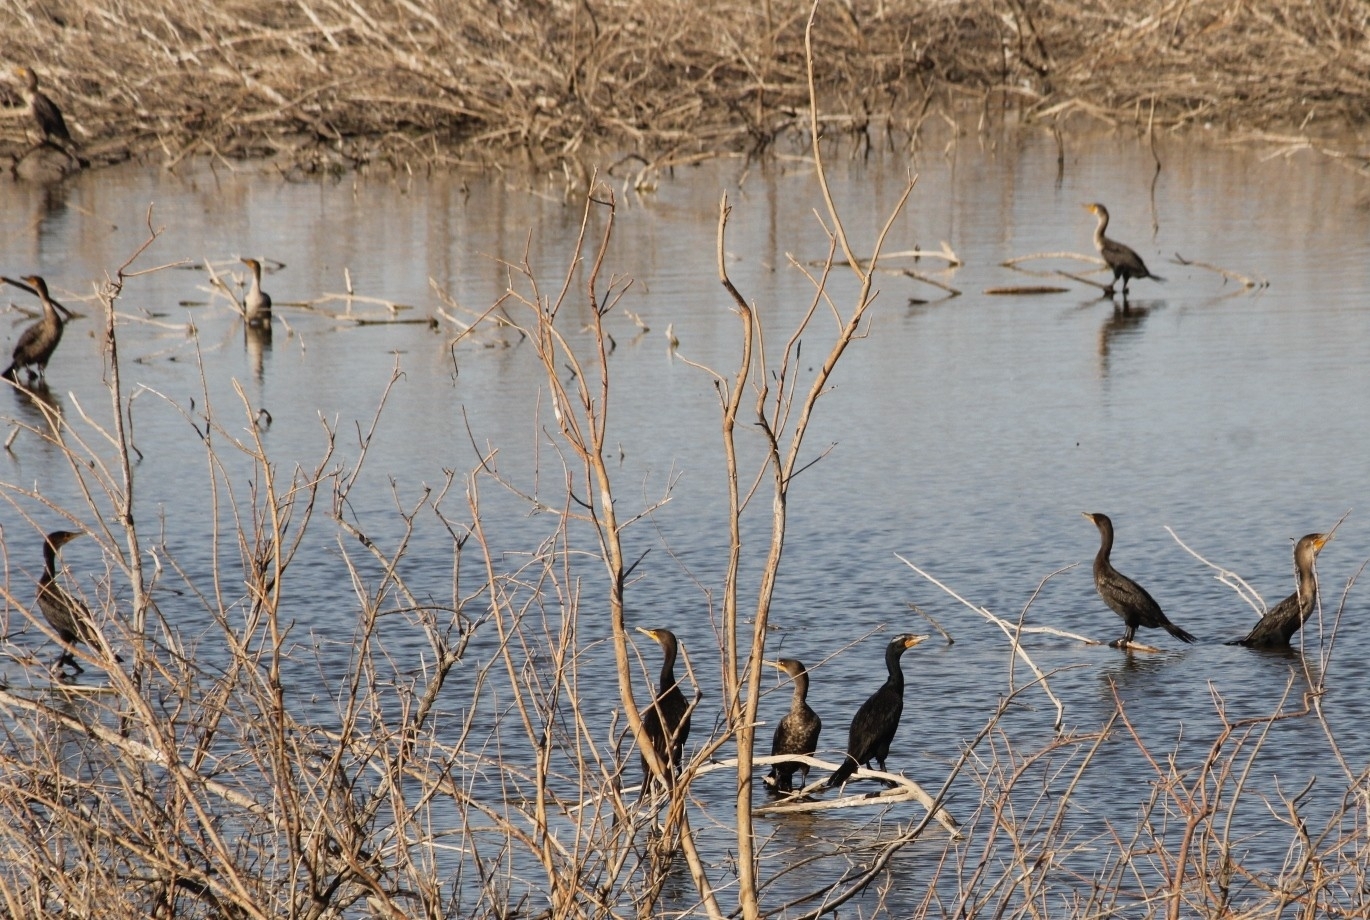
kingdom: Animalia
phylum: Chordata
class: Aves
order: Suliformes
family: Phalacrocoracidae
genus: Phalacrocorax
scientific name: Phalacrocorax auritus
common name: Double-crested cormorant
